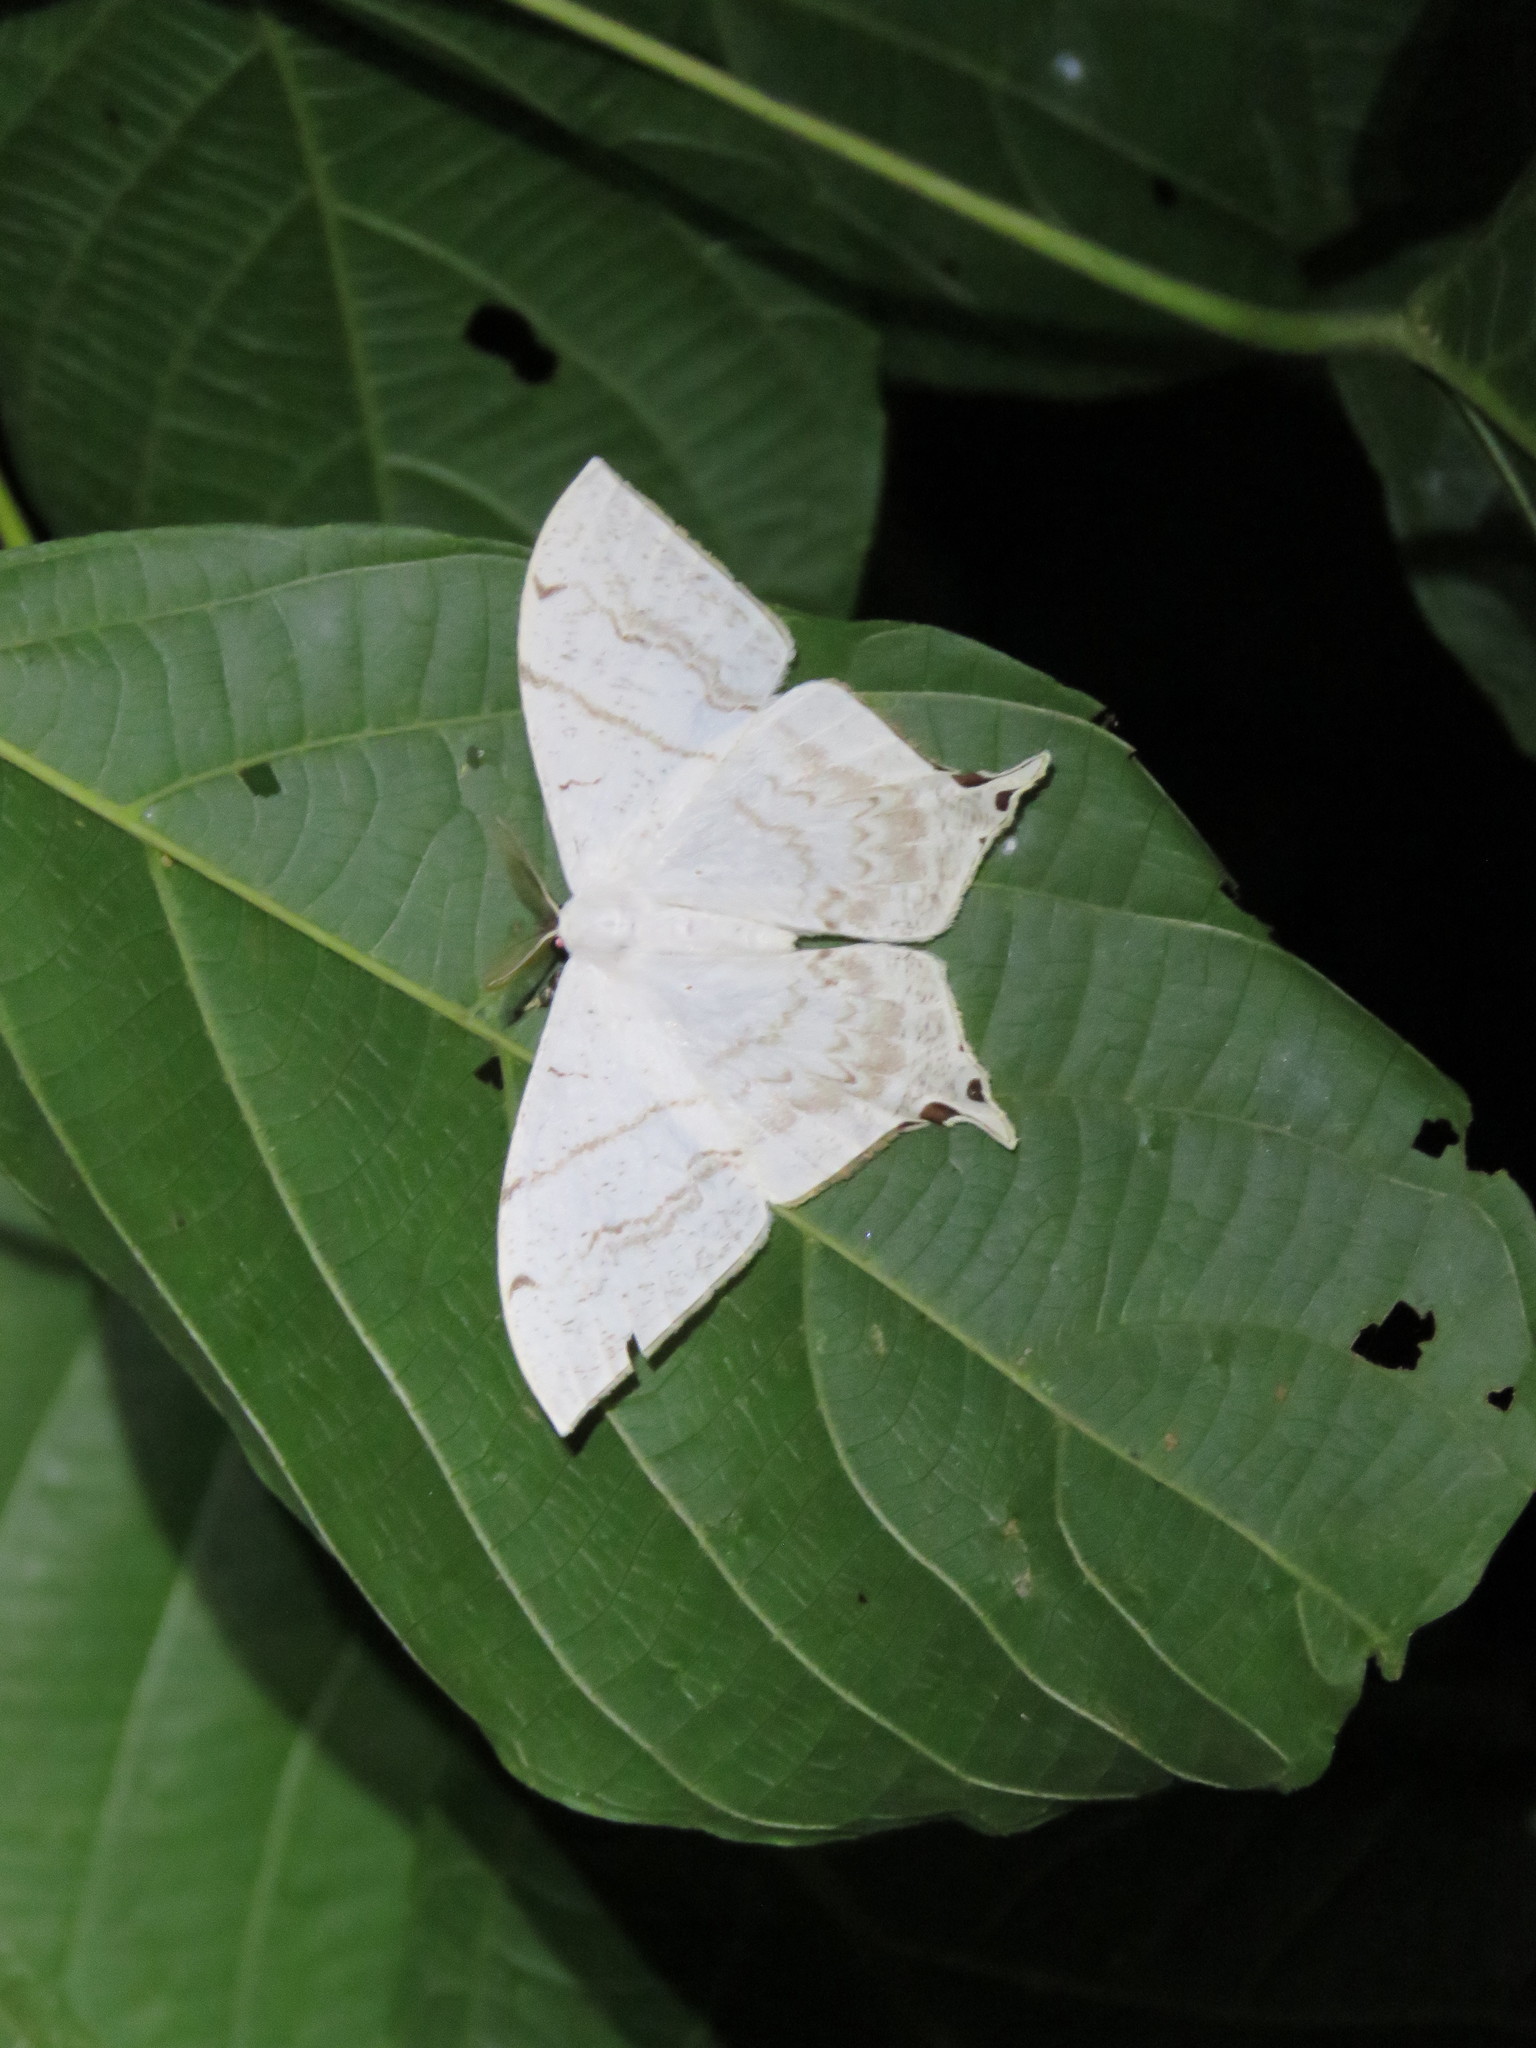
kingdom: Animalia
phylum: Arthropoda
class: Insecta
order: Lepidoptera
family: Saturniidae
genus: Therinia
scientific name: Therinia lactucina
